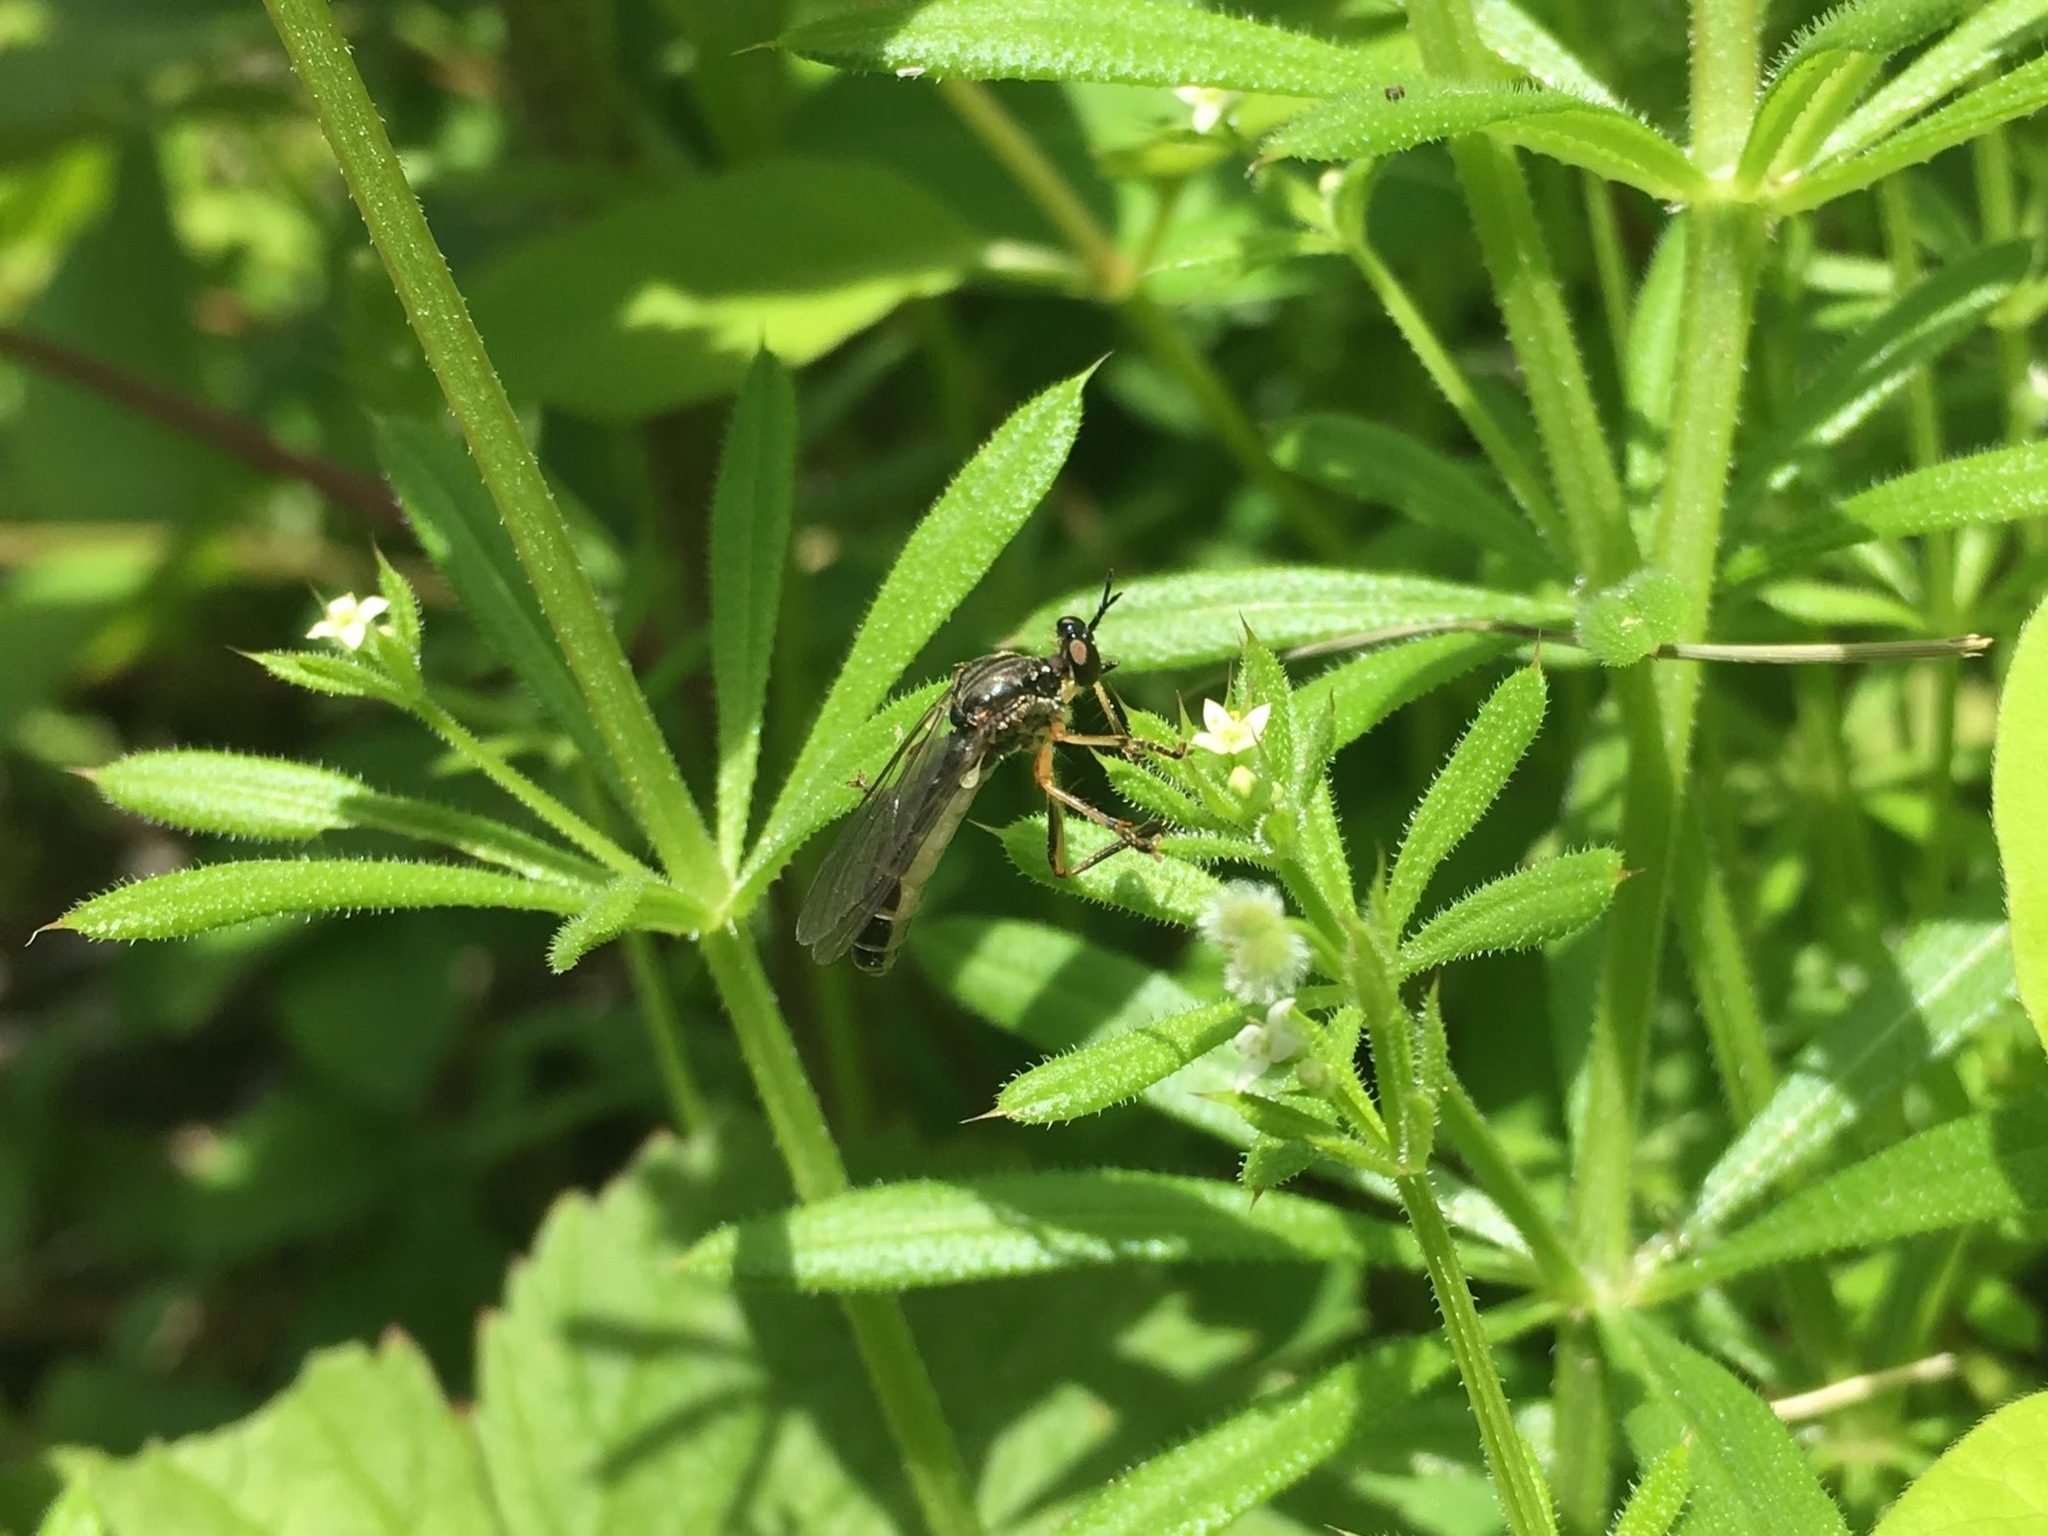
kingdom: Animalia
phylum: Arthropoda
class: Insecta
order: Diptera
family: Asilidae
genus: Dioctria
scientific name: Dioctria hyalipennis
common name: Stripe-legged robberfly
